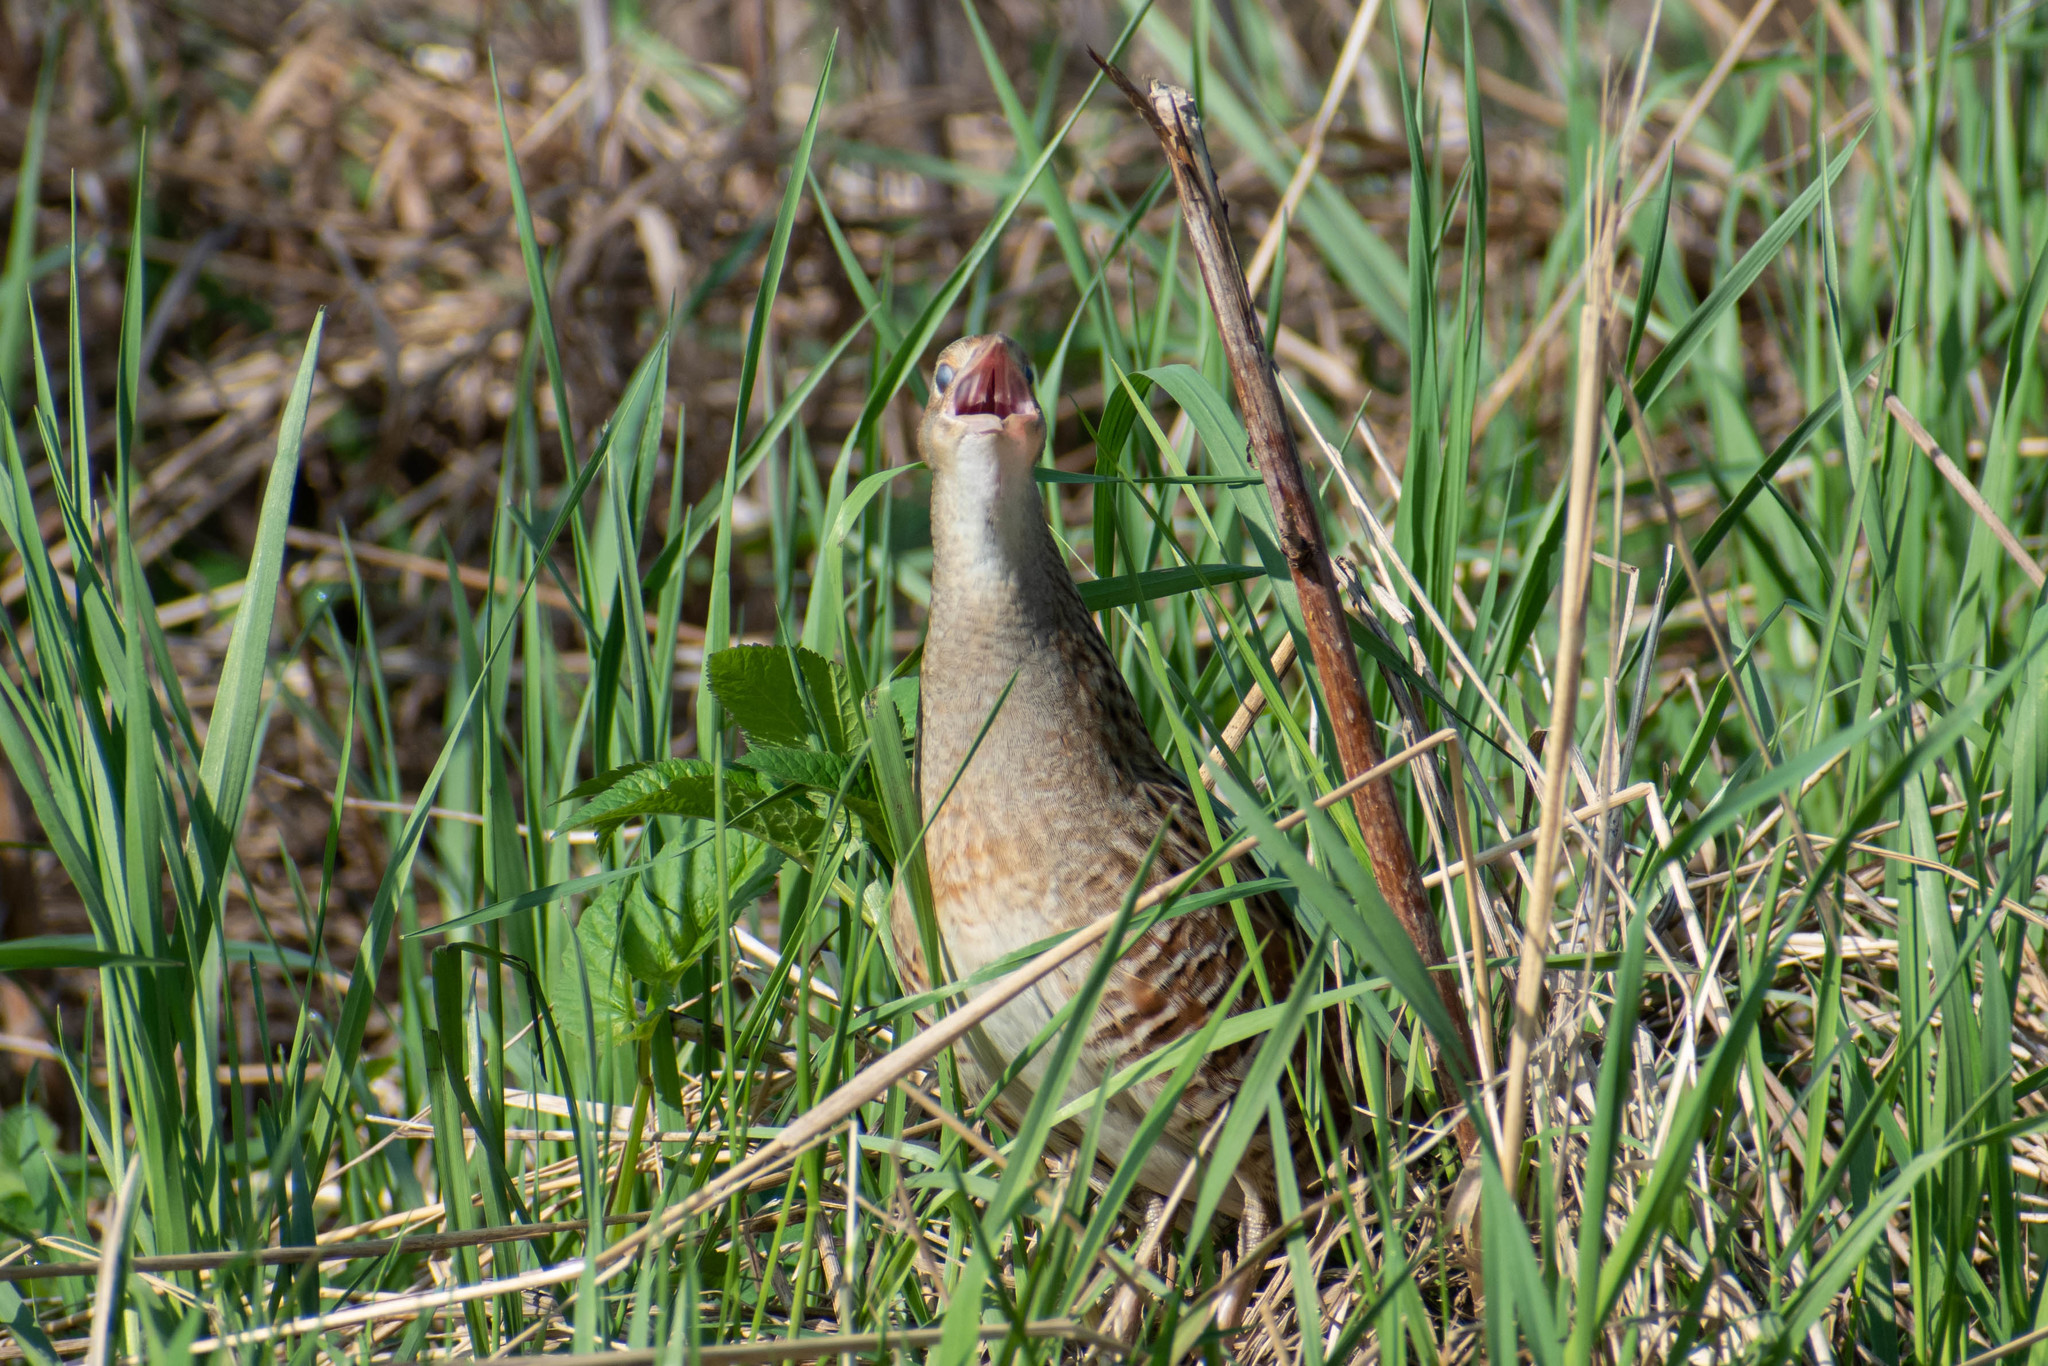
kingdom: Animalia
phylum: Chordata
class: Aves
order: Gruiformes
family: Rallidae
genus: Crex
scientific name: Crex crex
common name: Corn crake
